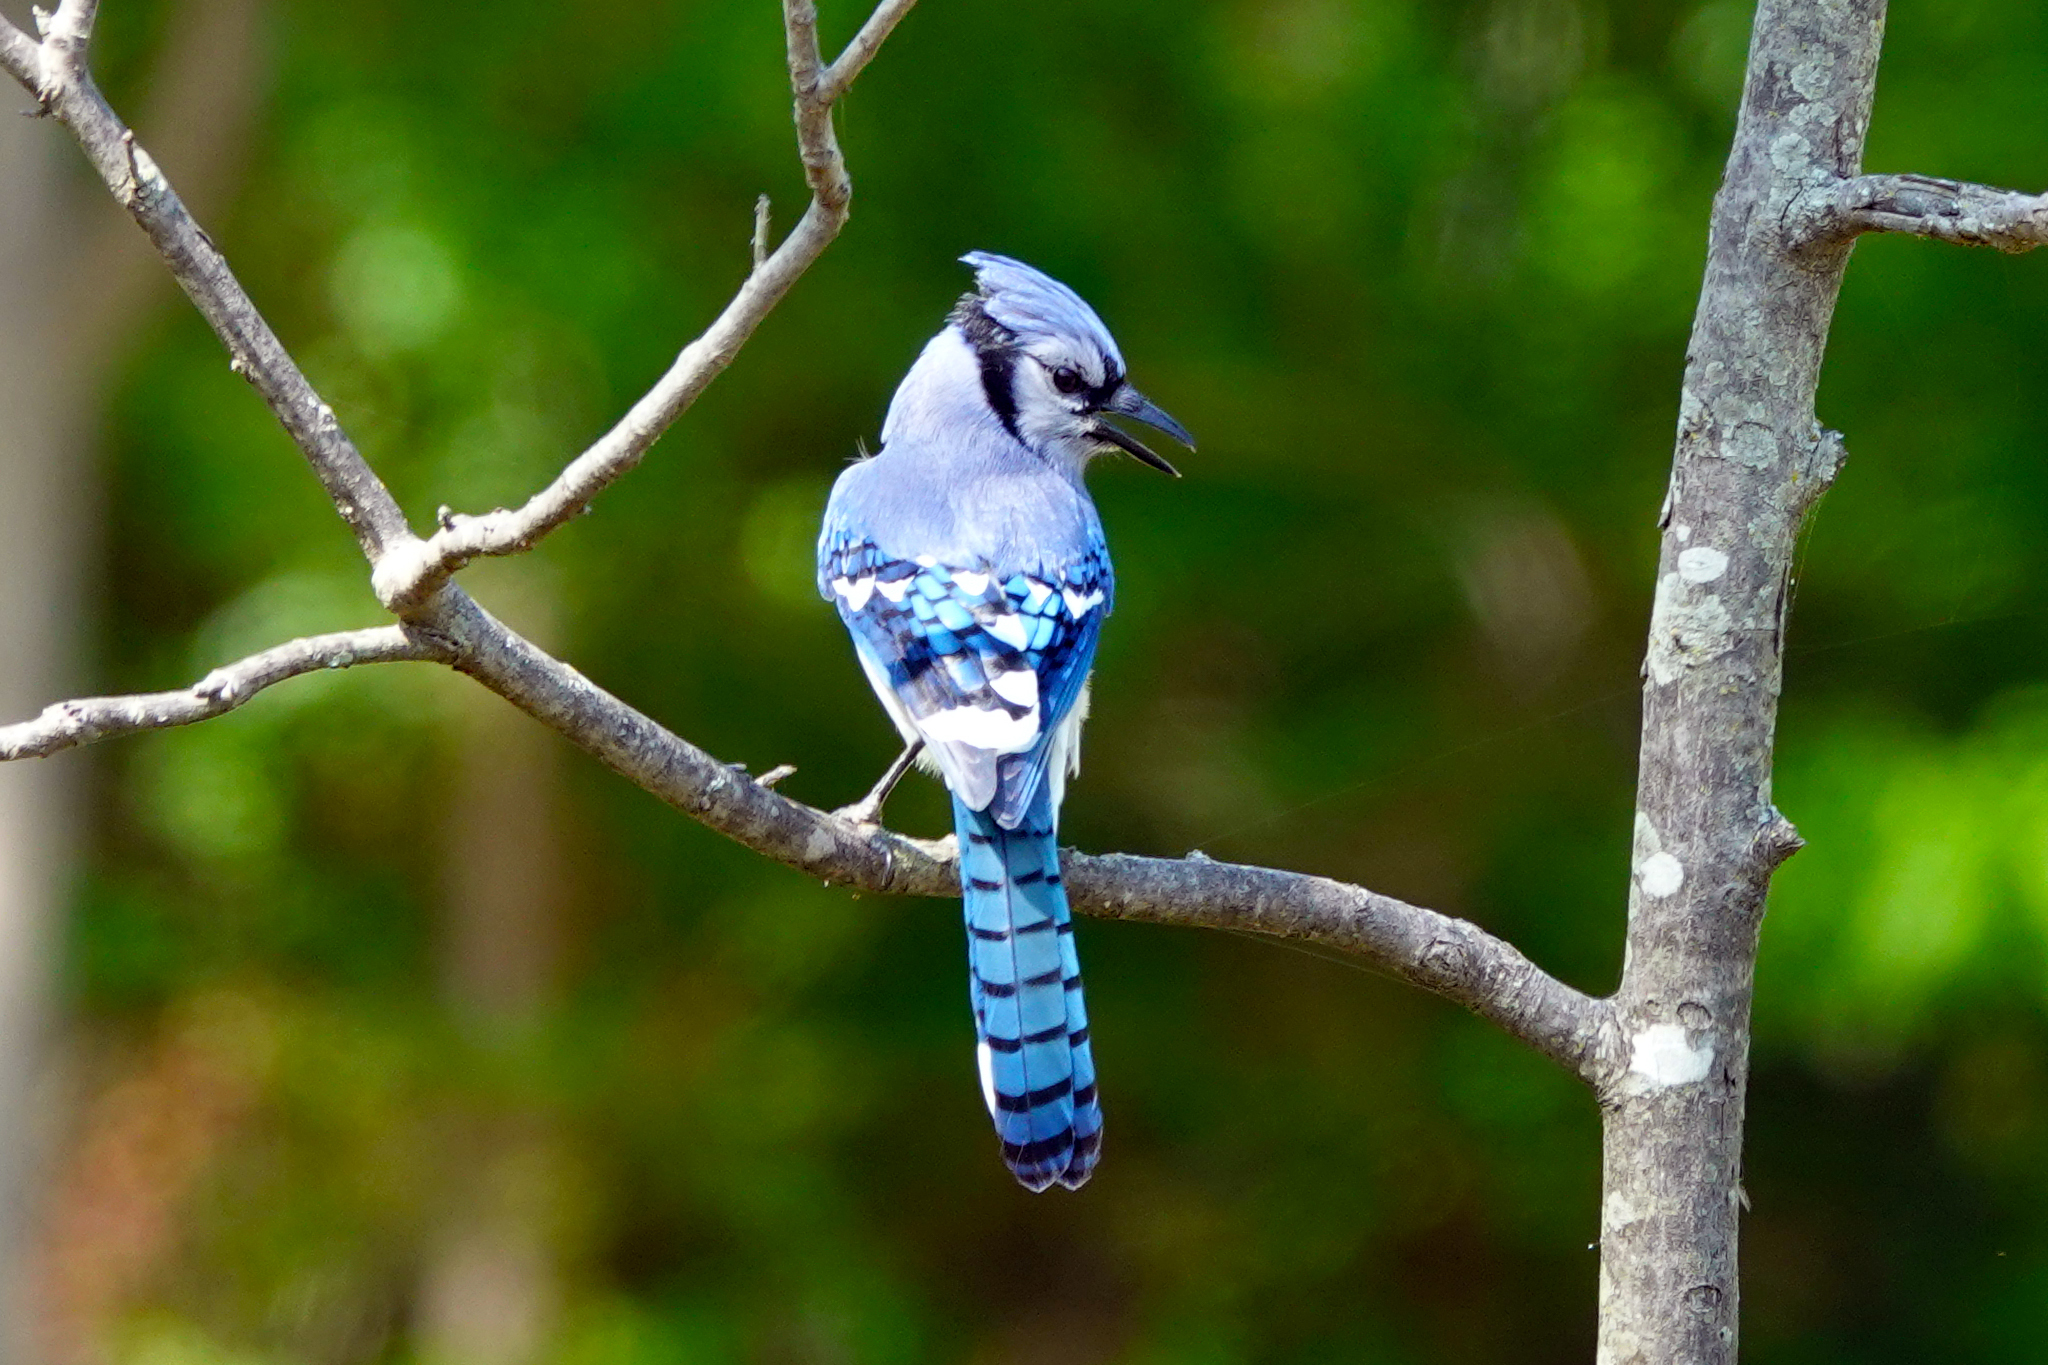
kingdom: Animalia
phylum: Chordata
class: Aves
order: Passeriformes
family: Corvidae
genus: Cyanocitta
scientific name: Cyanocitta cristata
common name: Blue jay
